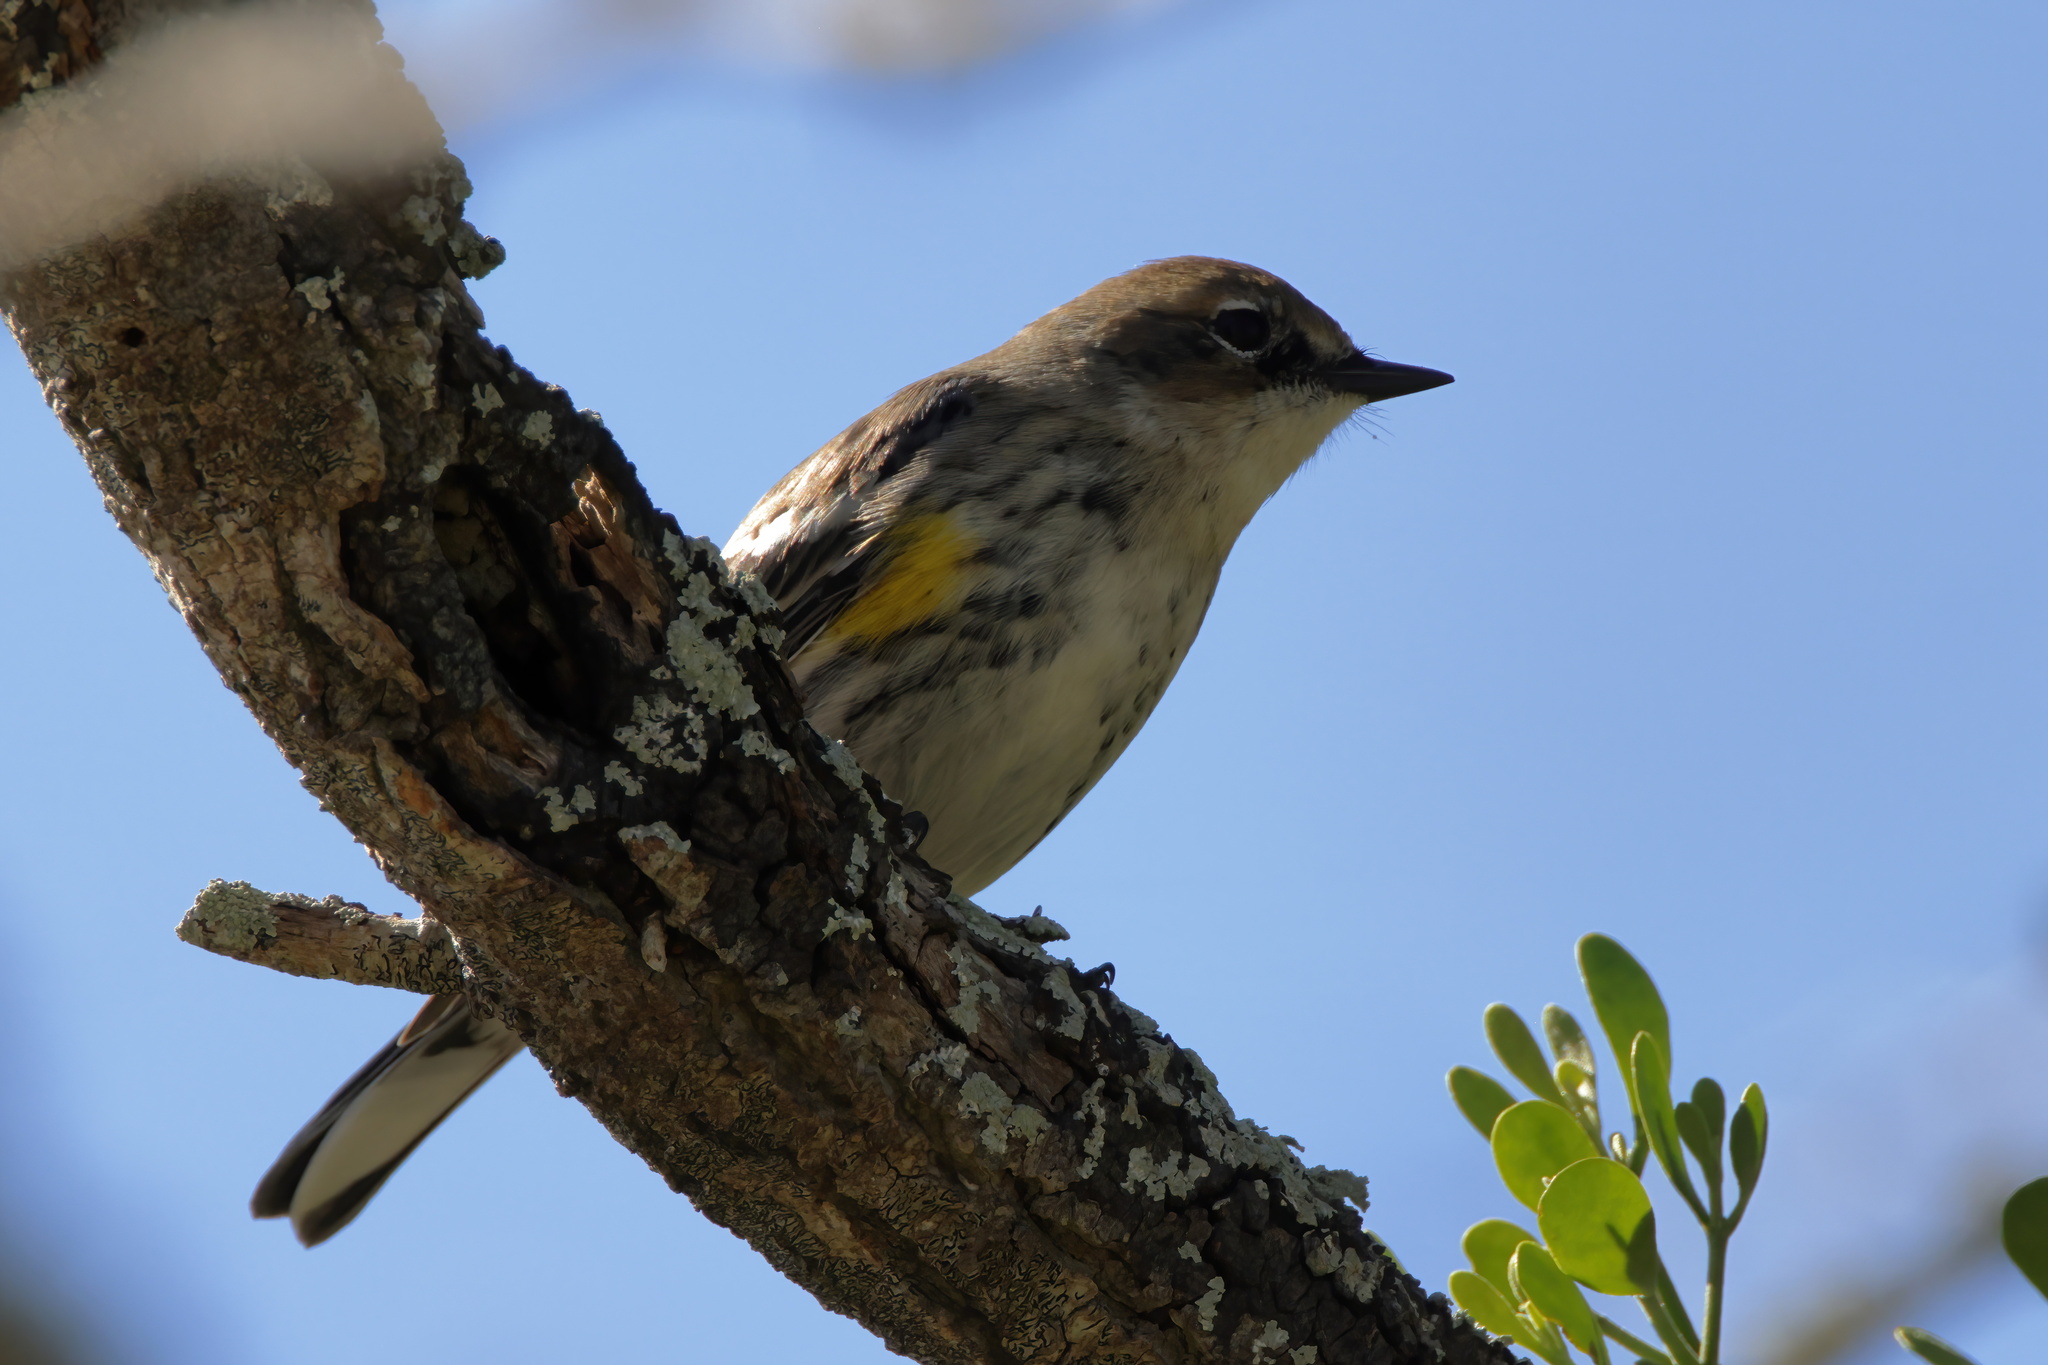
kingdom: Animalia
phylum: Chordata
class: Aves
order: Passeriformes
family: Parulidae
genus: Setophaga
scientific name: Setophaga coronata
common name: Myrtle warbler
